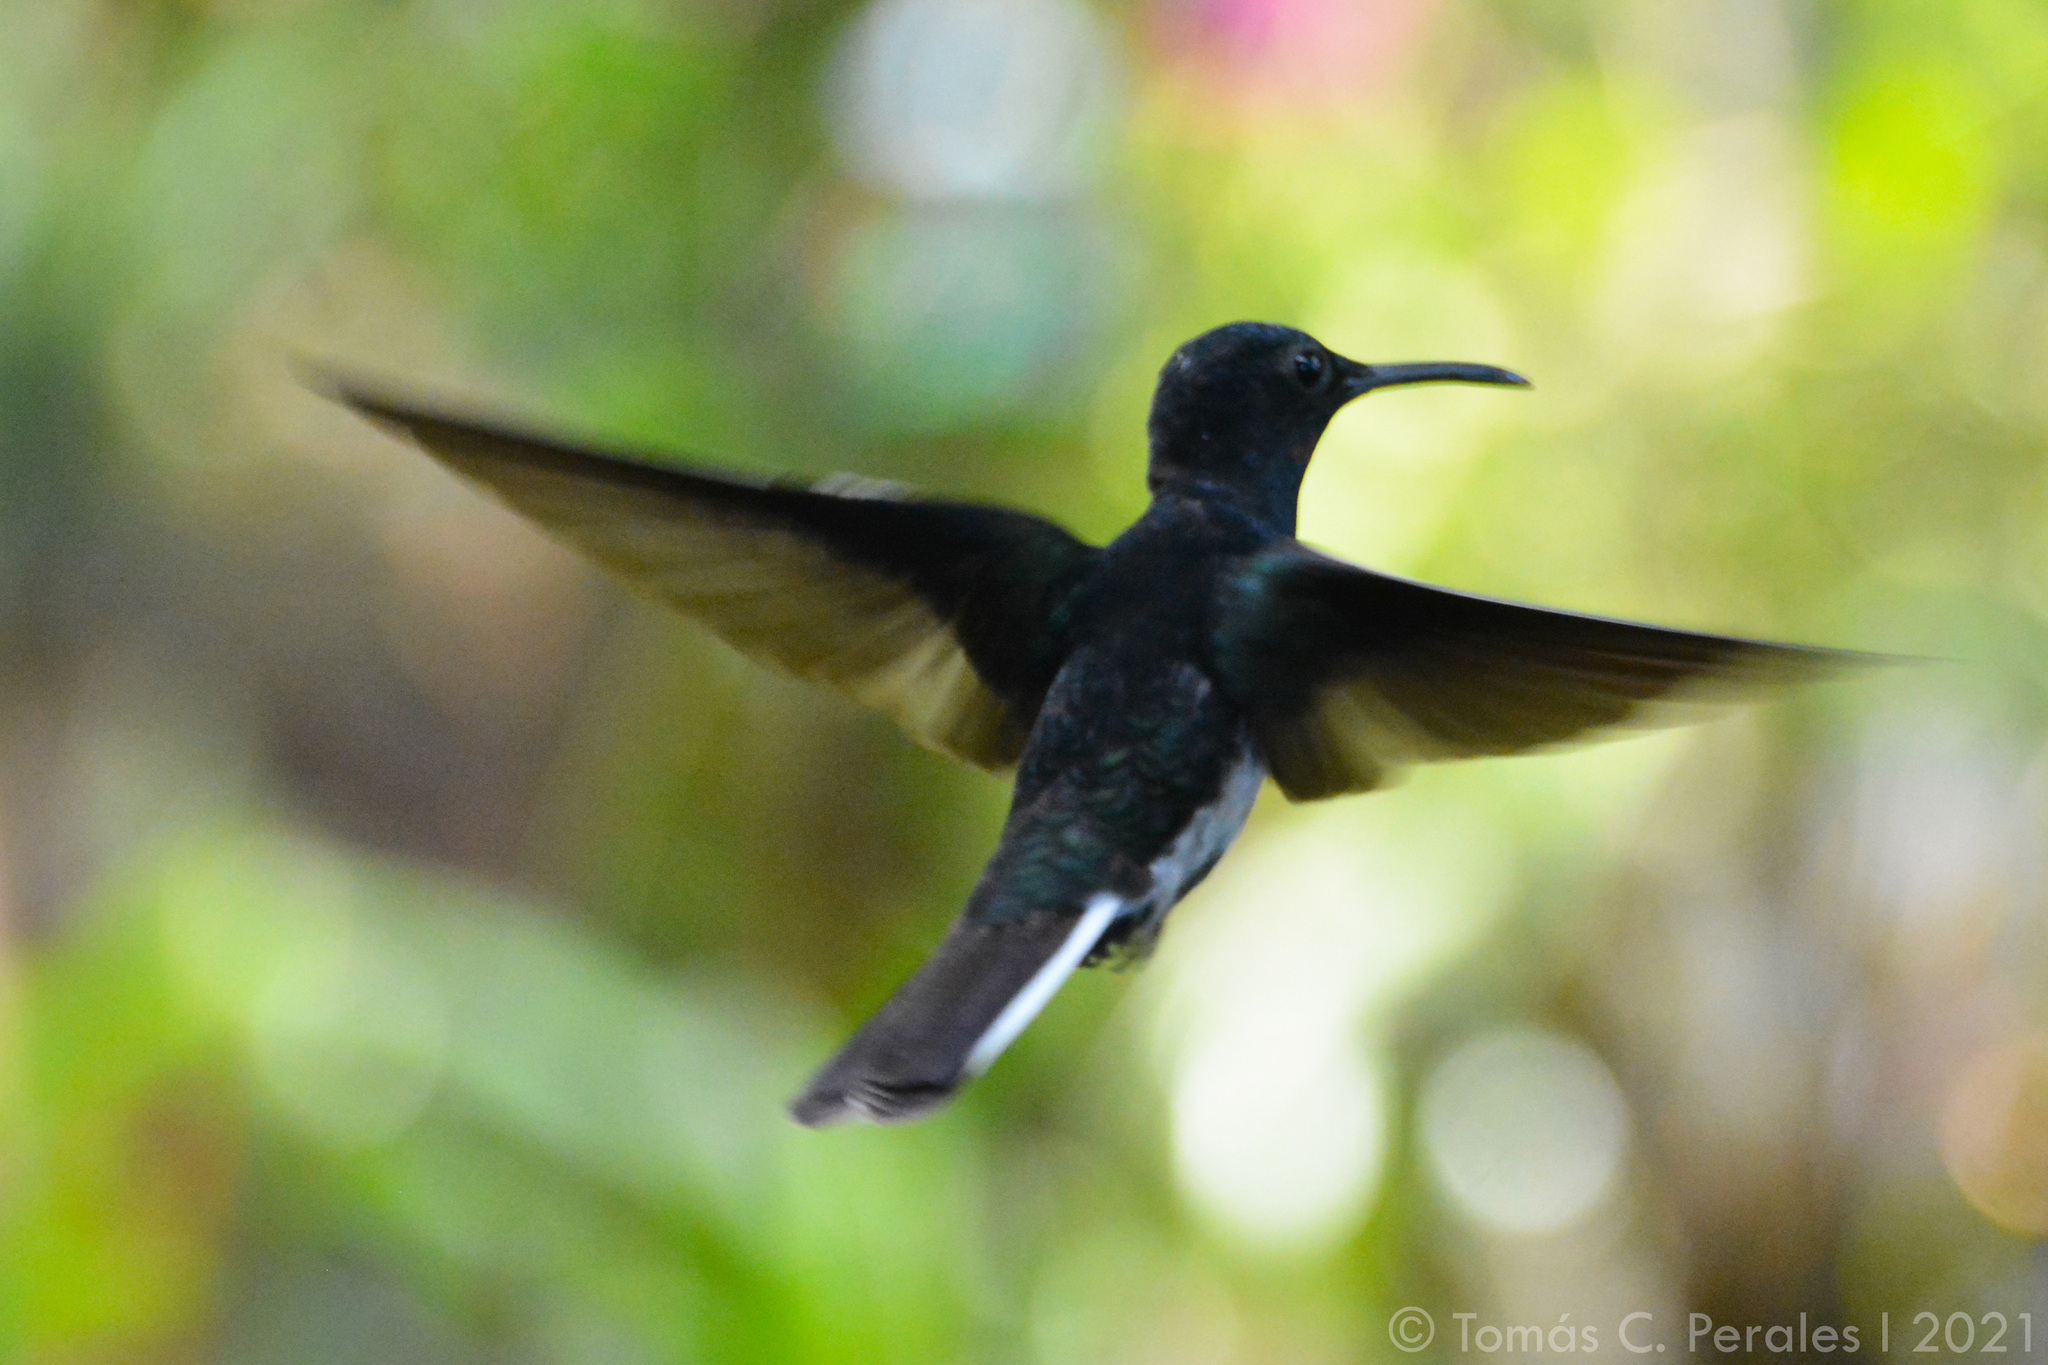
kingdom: Animalia
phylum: Chordata
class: Aves
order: Apodiformes
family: Trochilidae
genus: Florisuga
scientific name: Florisuga fusca
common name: Black jacobin
